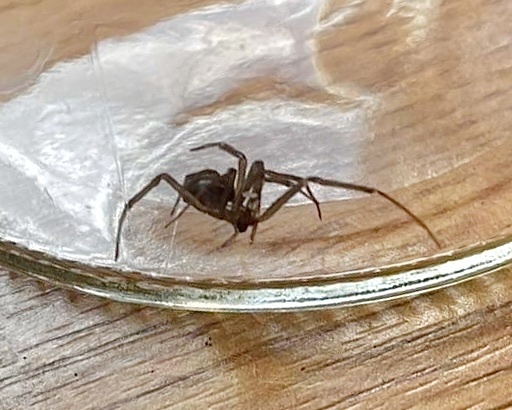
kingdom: Animalia
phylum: Arthropoda
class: Arachnida
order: Araneae
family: Theridiidae
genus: Steatoda
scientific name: Steatoda grossa
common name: False black widow
